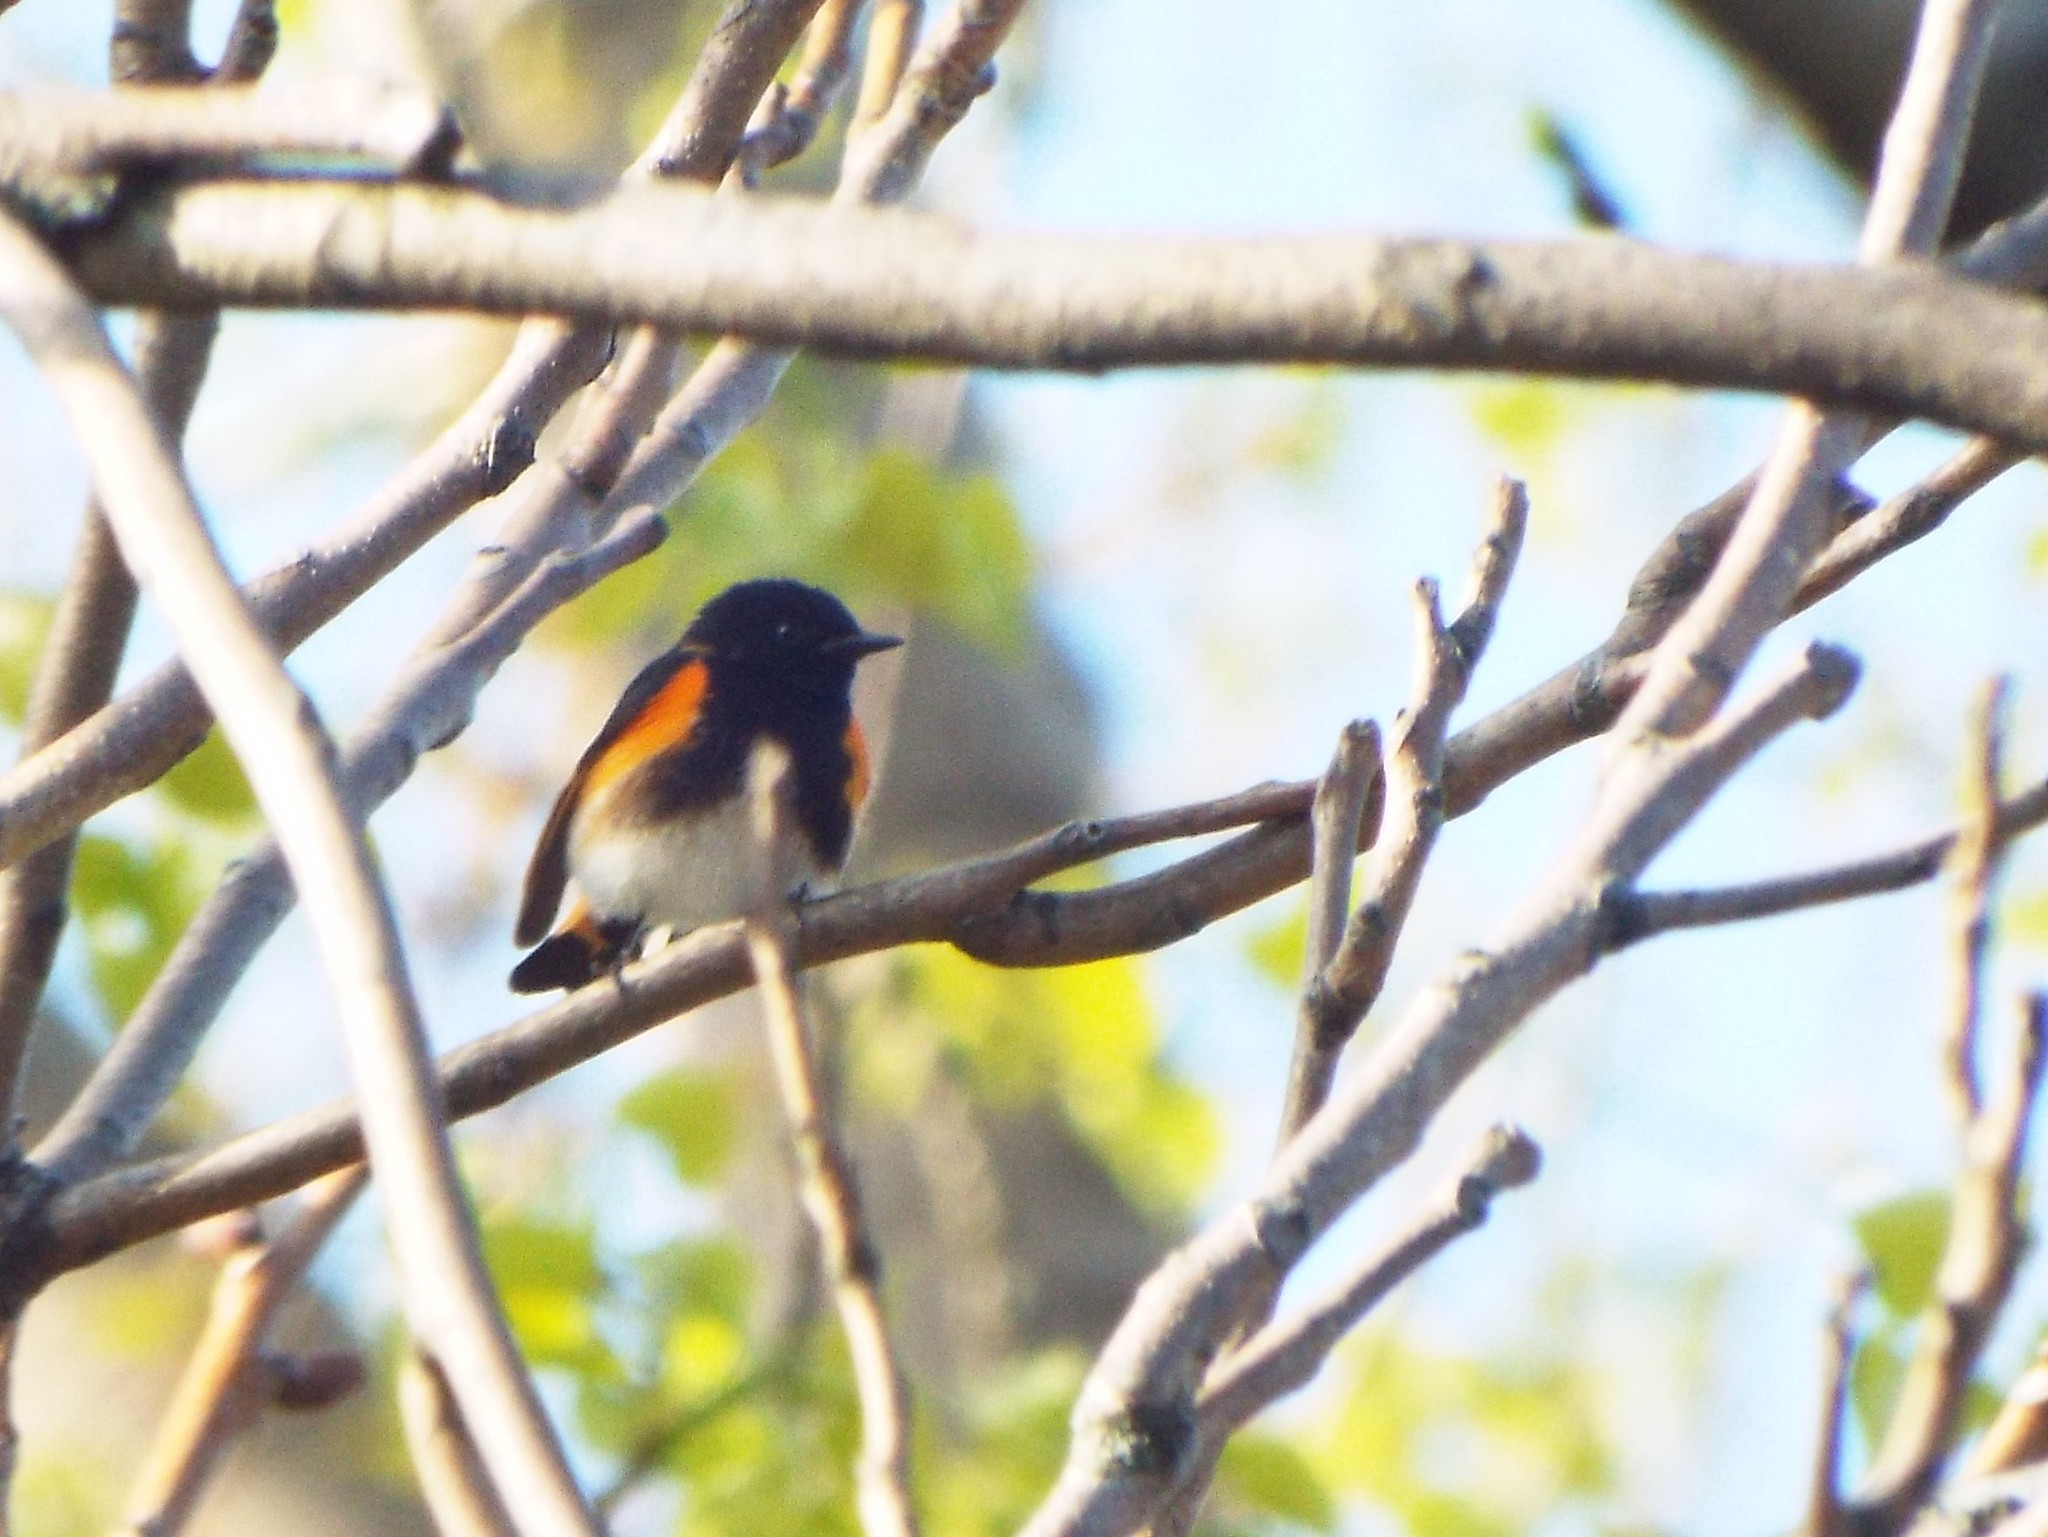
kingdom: Animalia
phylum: Chordata
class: Aves
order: Passeriformes
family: Parulidae
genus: Setophaga
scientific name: Setophaga ruticilla
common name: American redstart
